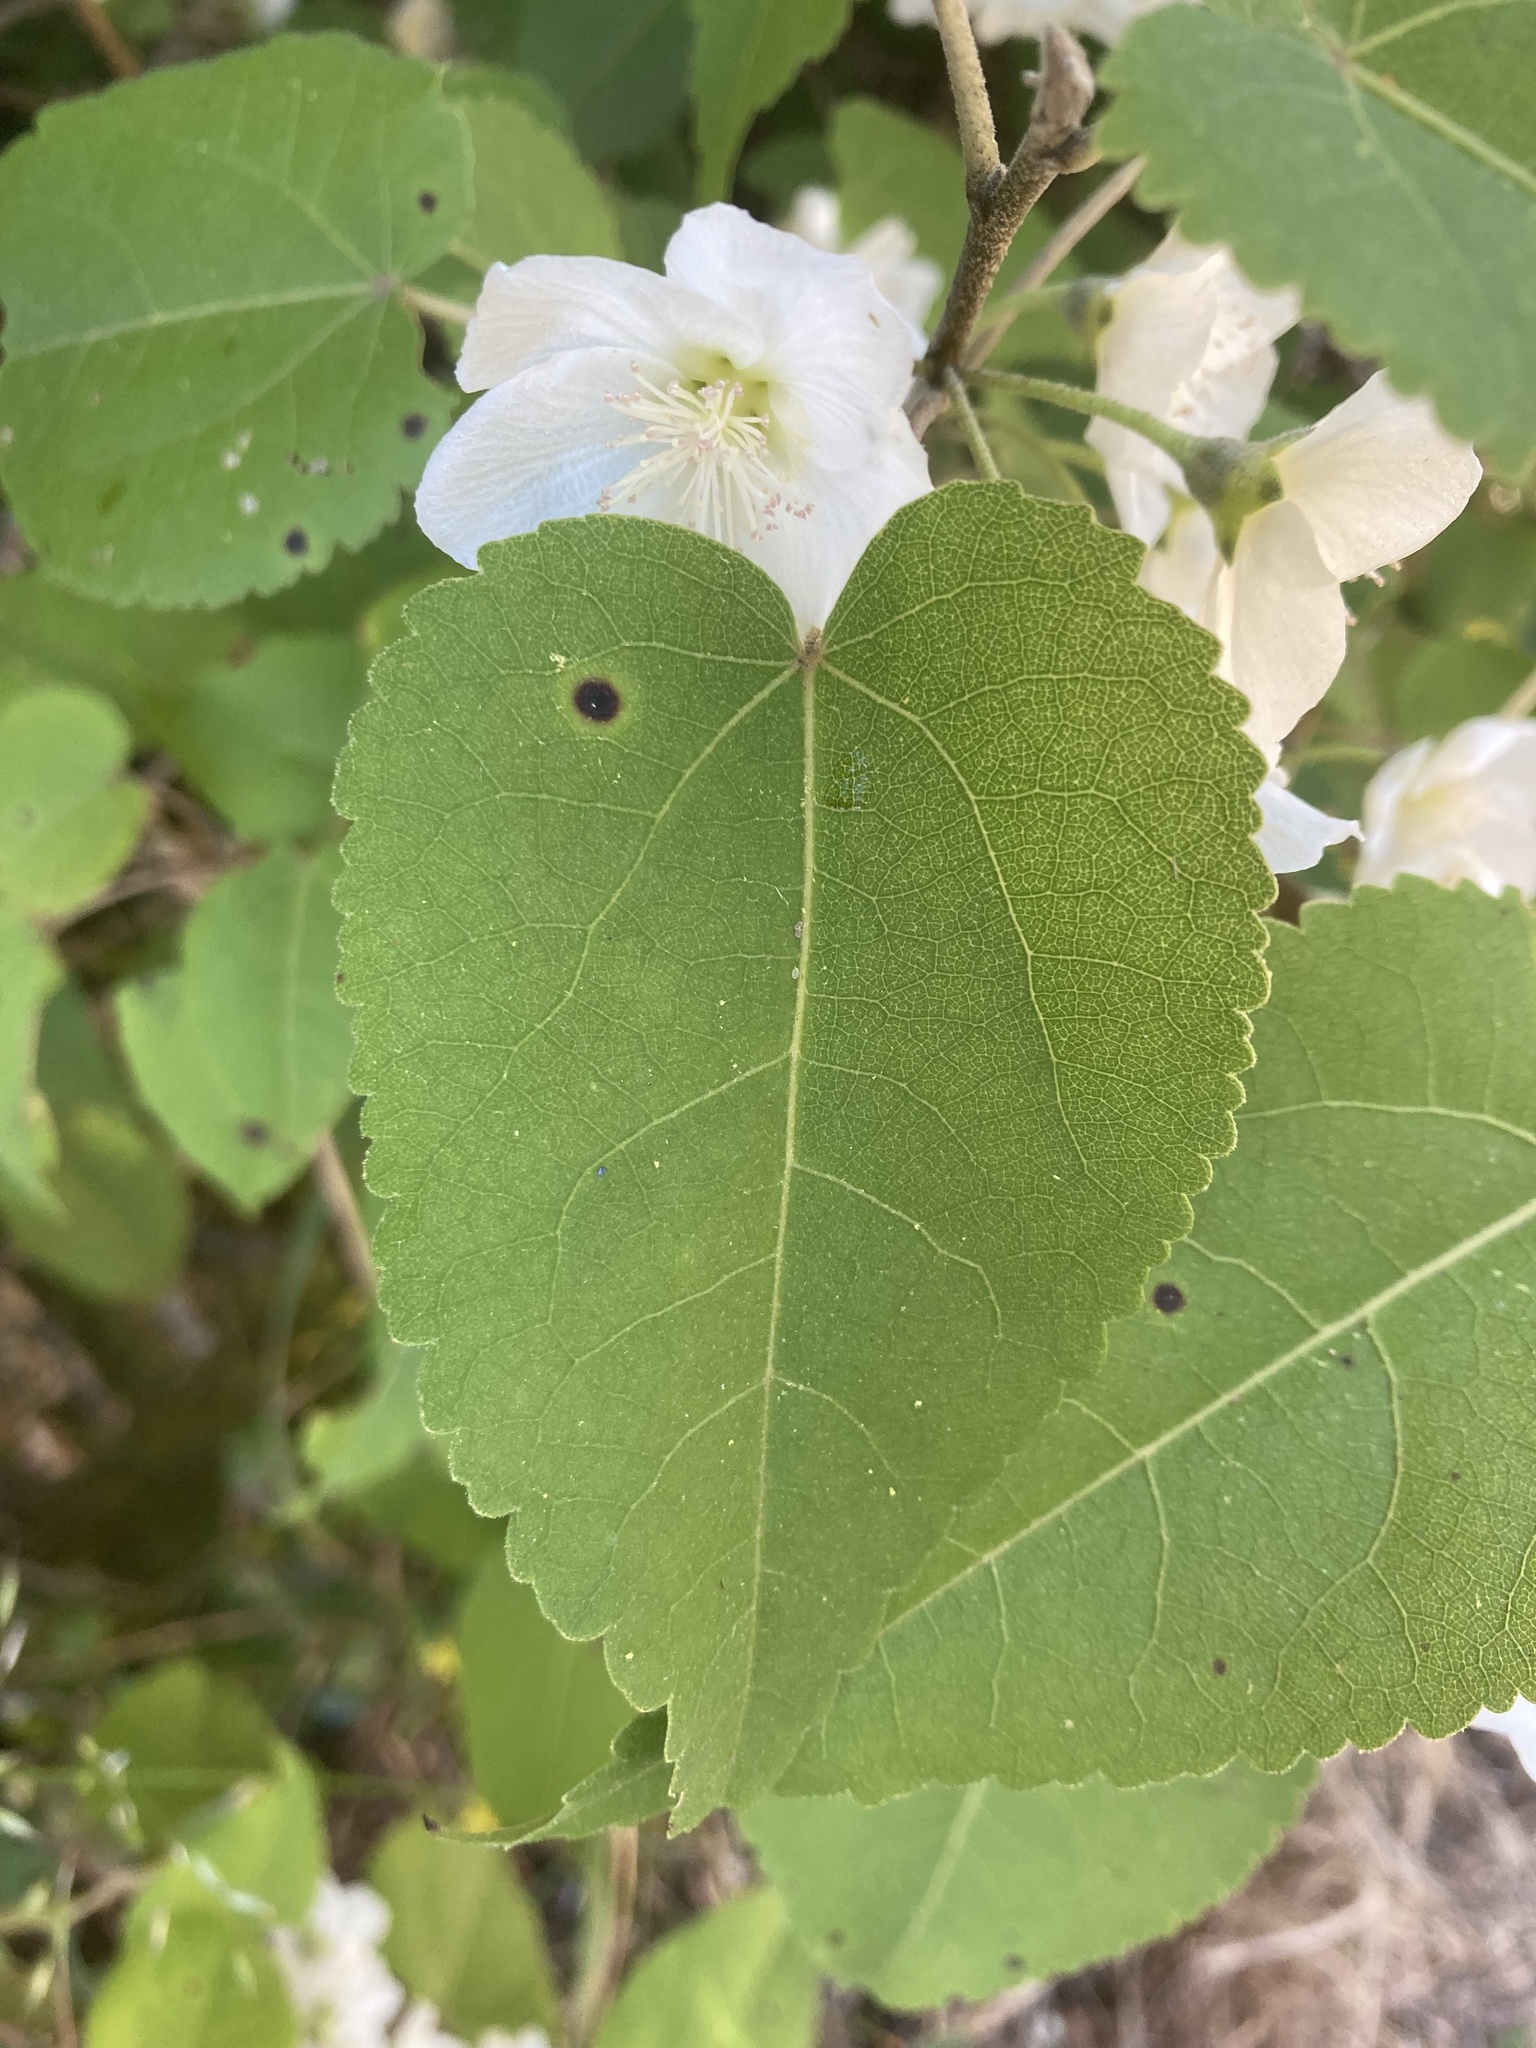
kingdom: Plantae
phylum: Tracheophyta
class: Magnoliopsida
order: Malvales
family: Malvaceae
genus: Hoheria
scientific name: Hoheria glabrata
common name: Mountain-ribbon
